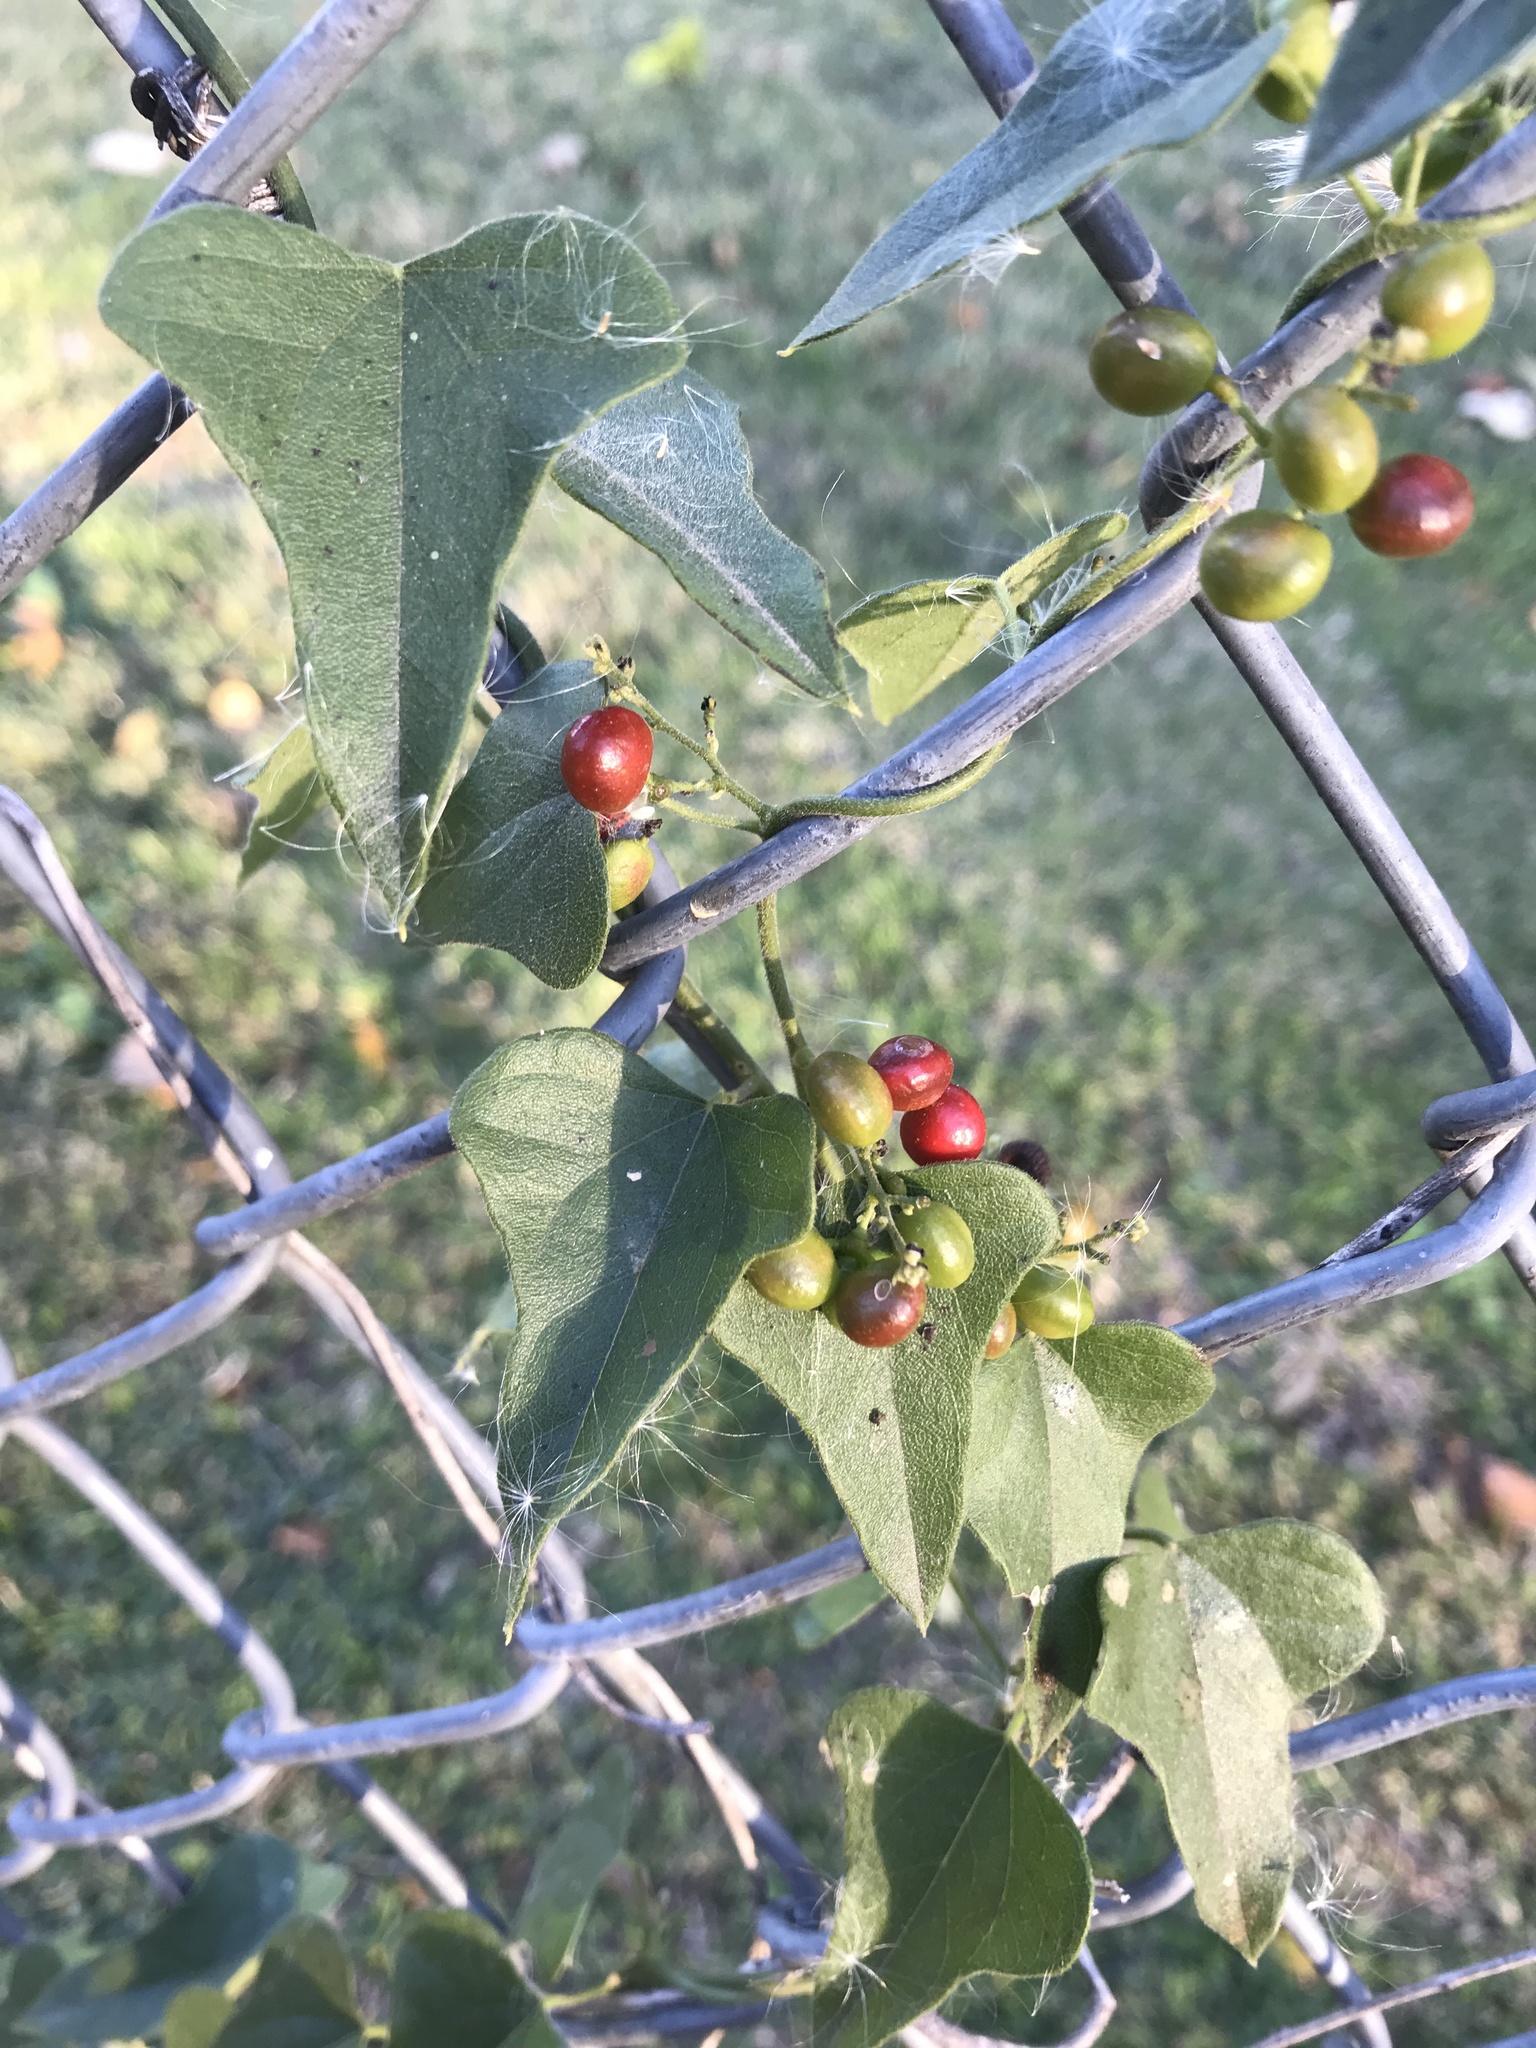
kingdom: Plantae
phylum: Tracheophyta
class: Magnoliopsida
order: Ranunculales
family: Menispermaceae
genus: Cocculus
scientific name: Cocculus carolinus
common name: Carolina moonseed
